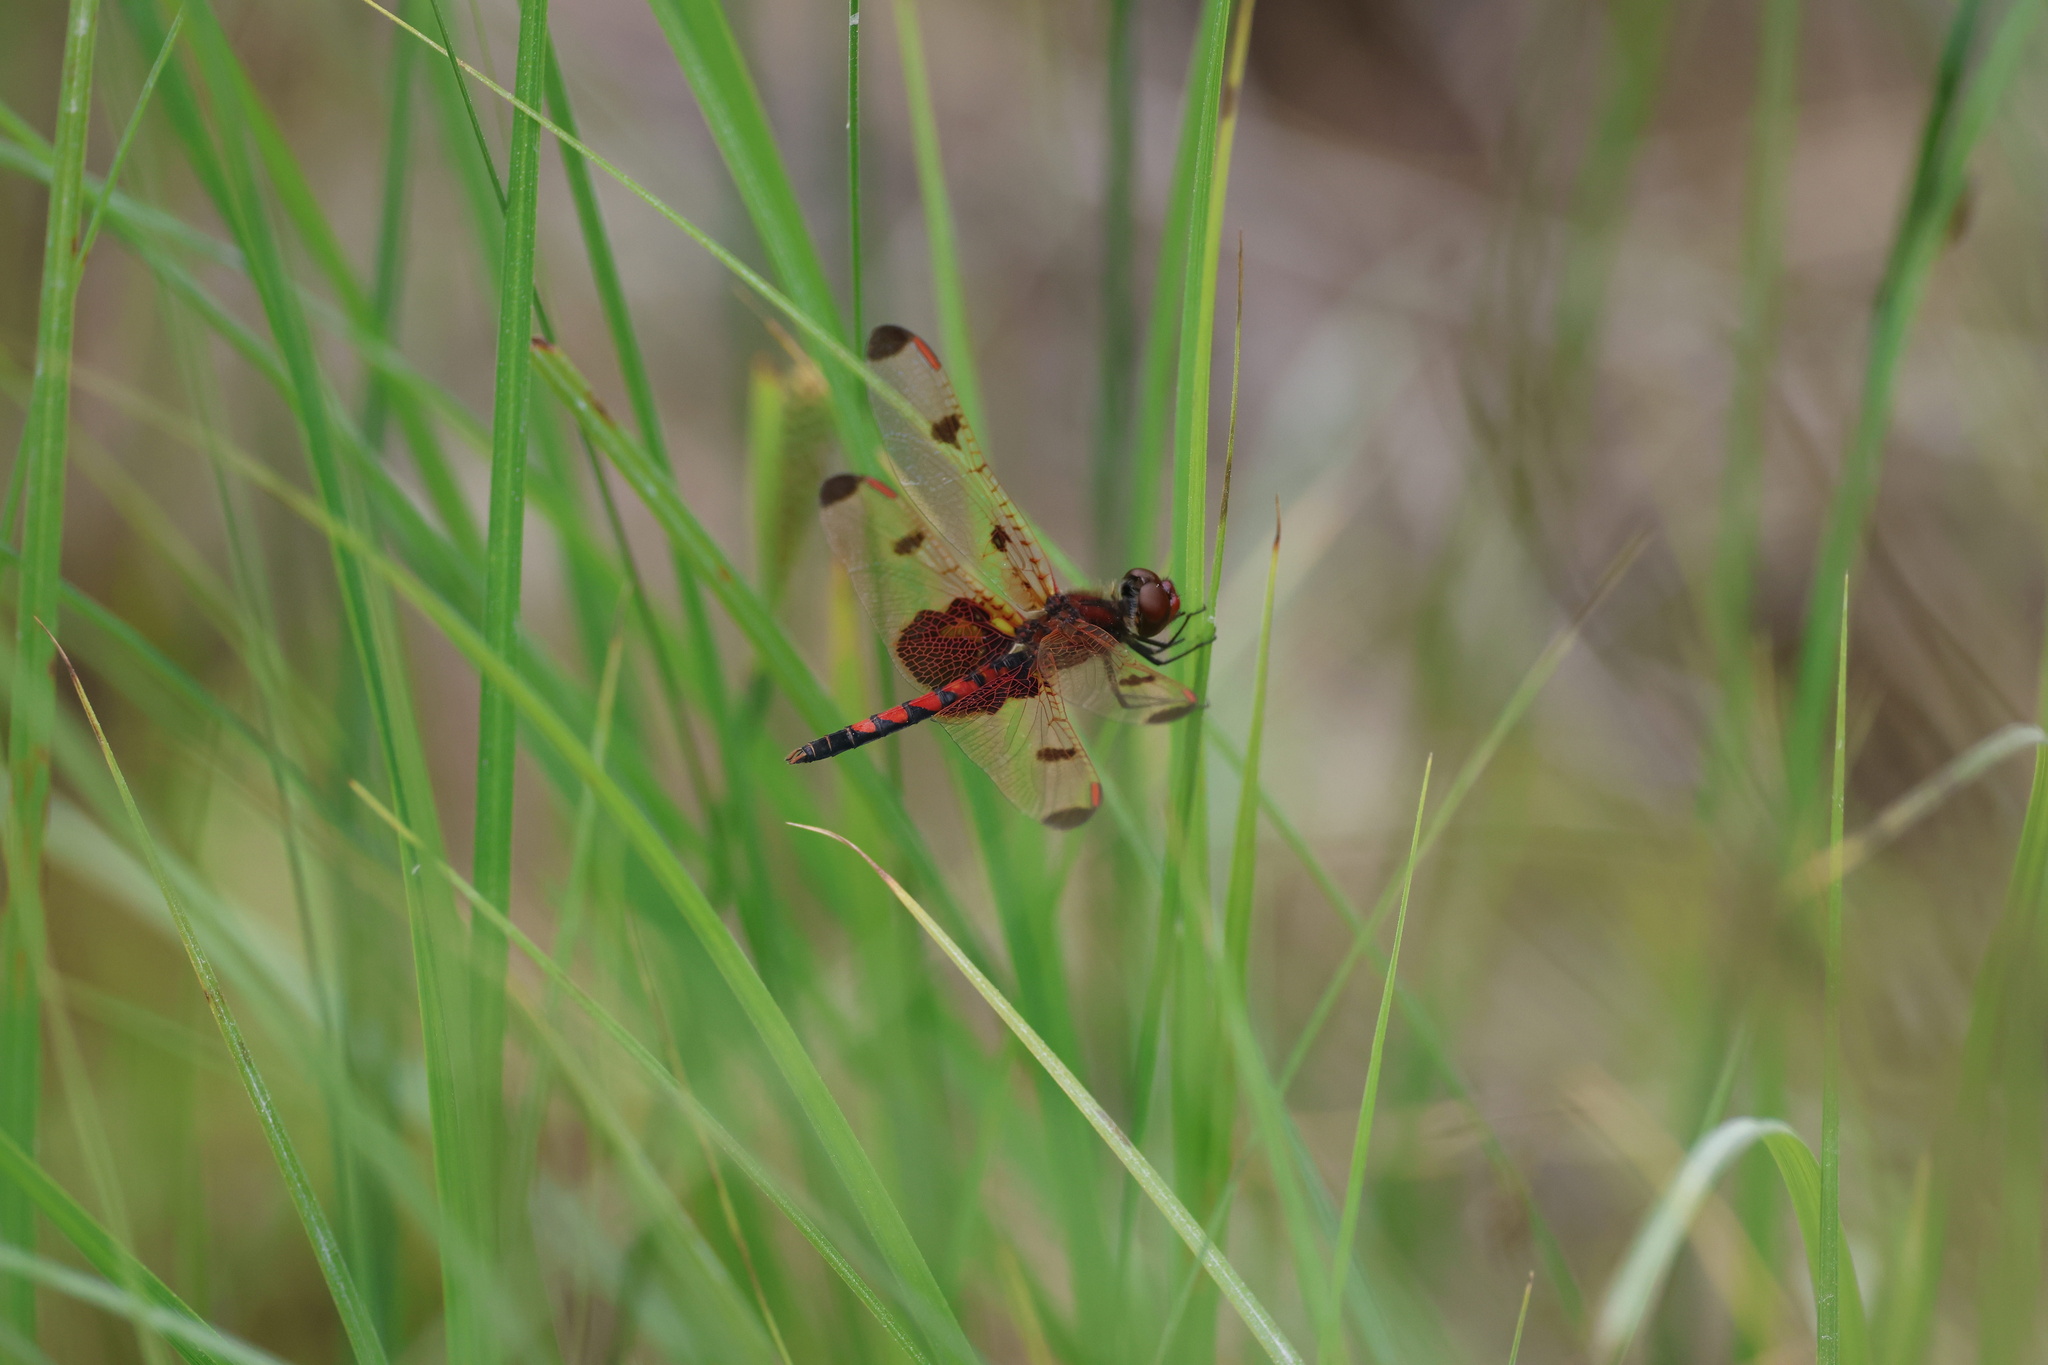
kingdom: Animalia
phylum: Arthropoda
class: Insecta
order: Odonata
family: Libellulidae
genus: Celithemis
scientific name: Celithemis elisa
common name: Calico pennant
